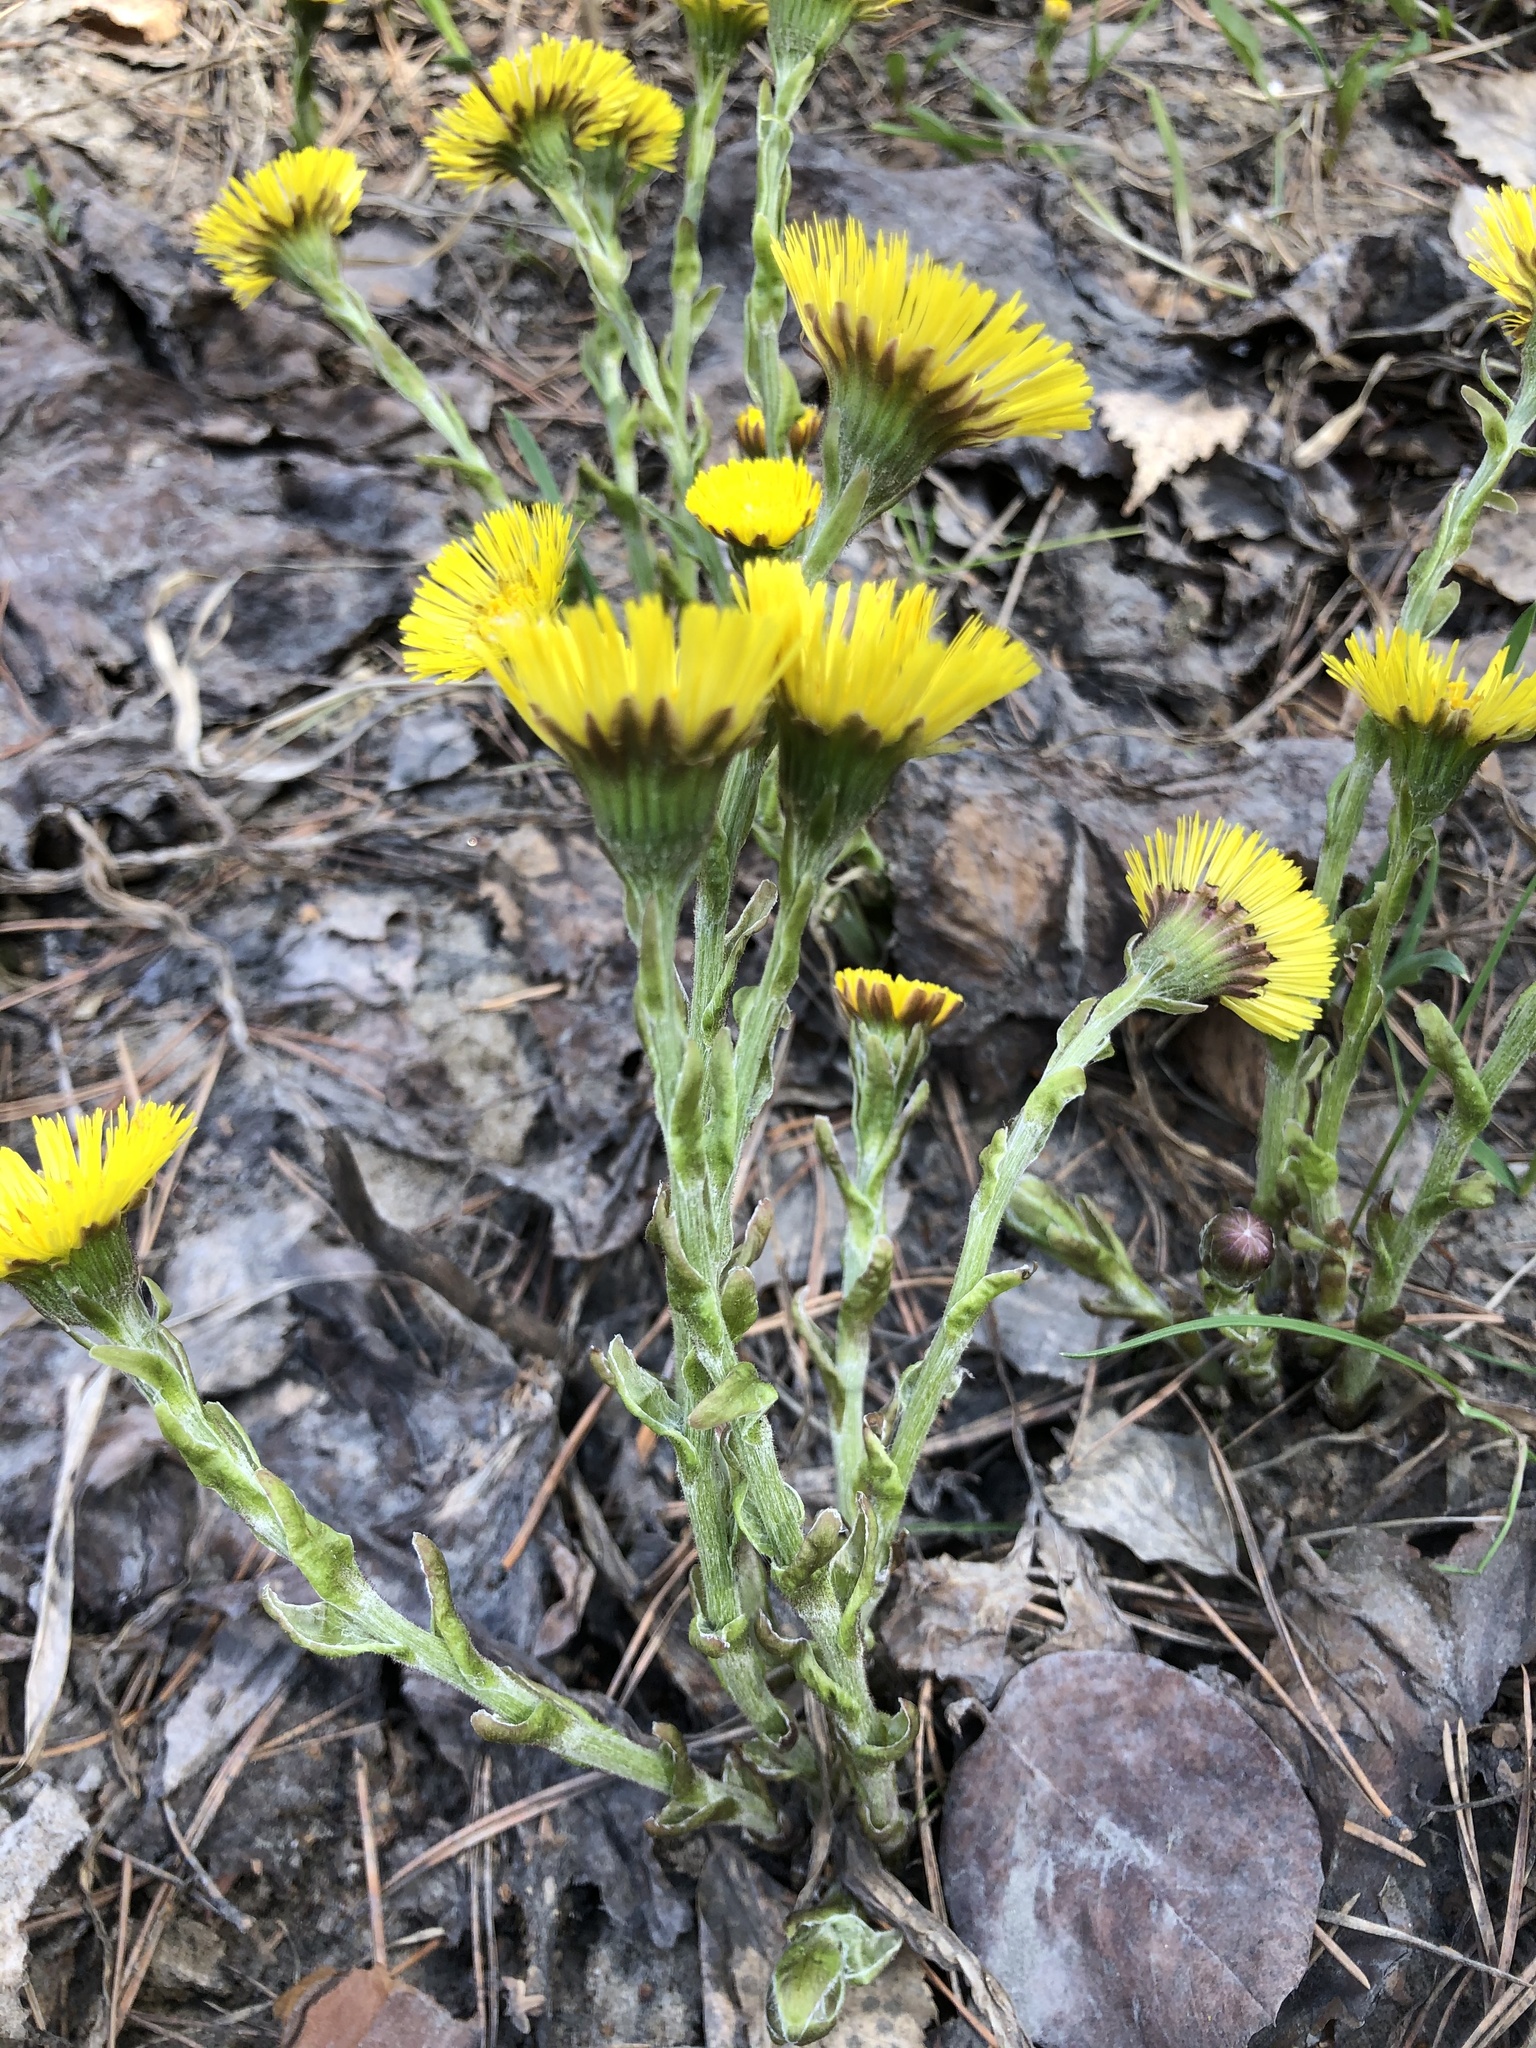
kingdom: Plantae
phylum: Tracheophyta
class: Magnoliopsida
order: Asterales
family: Asteraceae
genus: Tussilago
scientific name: Tussilago farfara
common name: Coltsfoot
